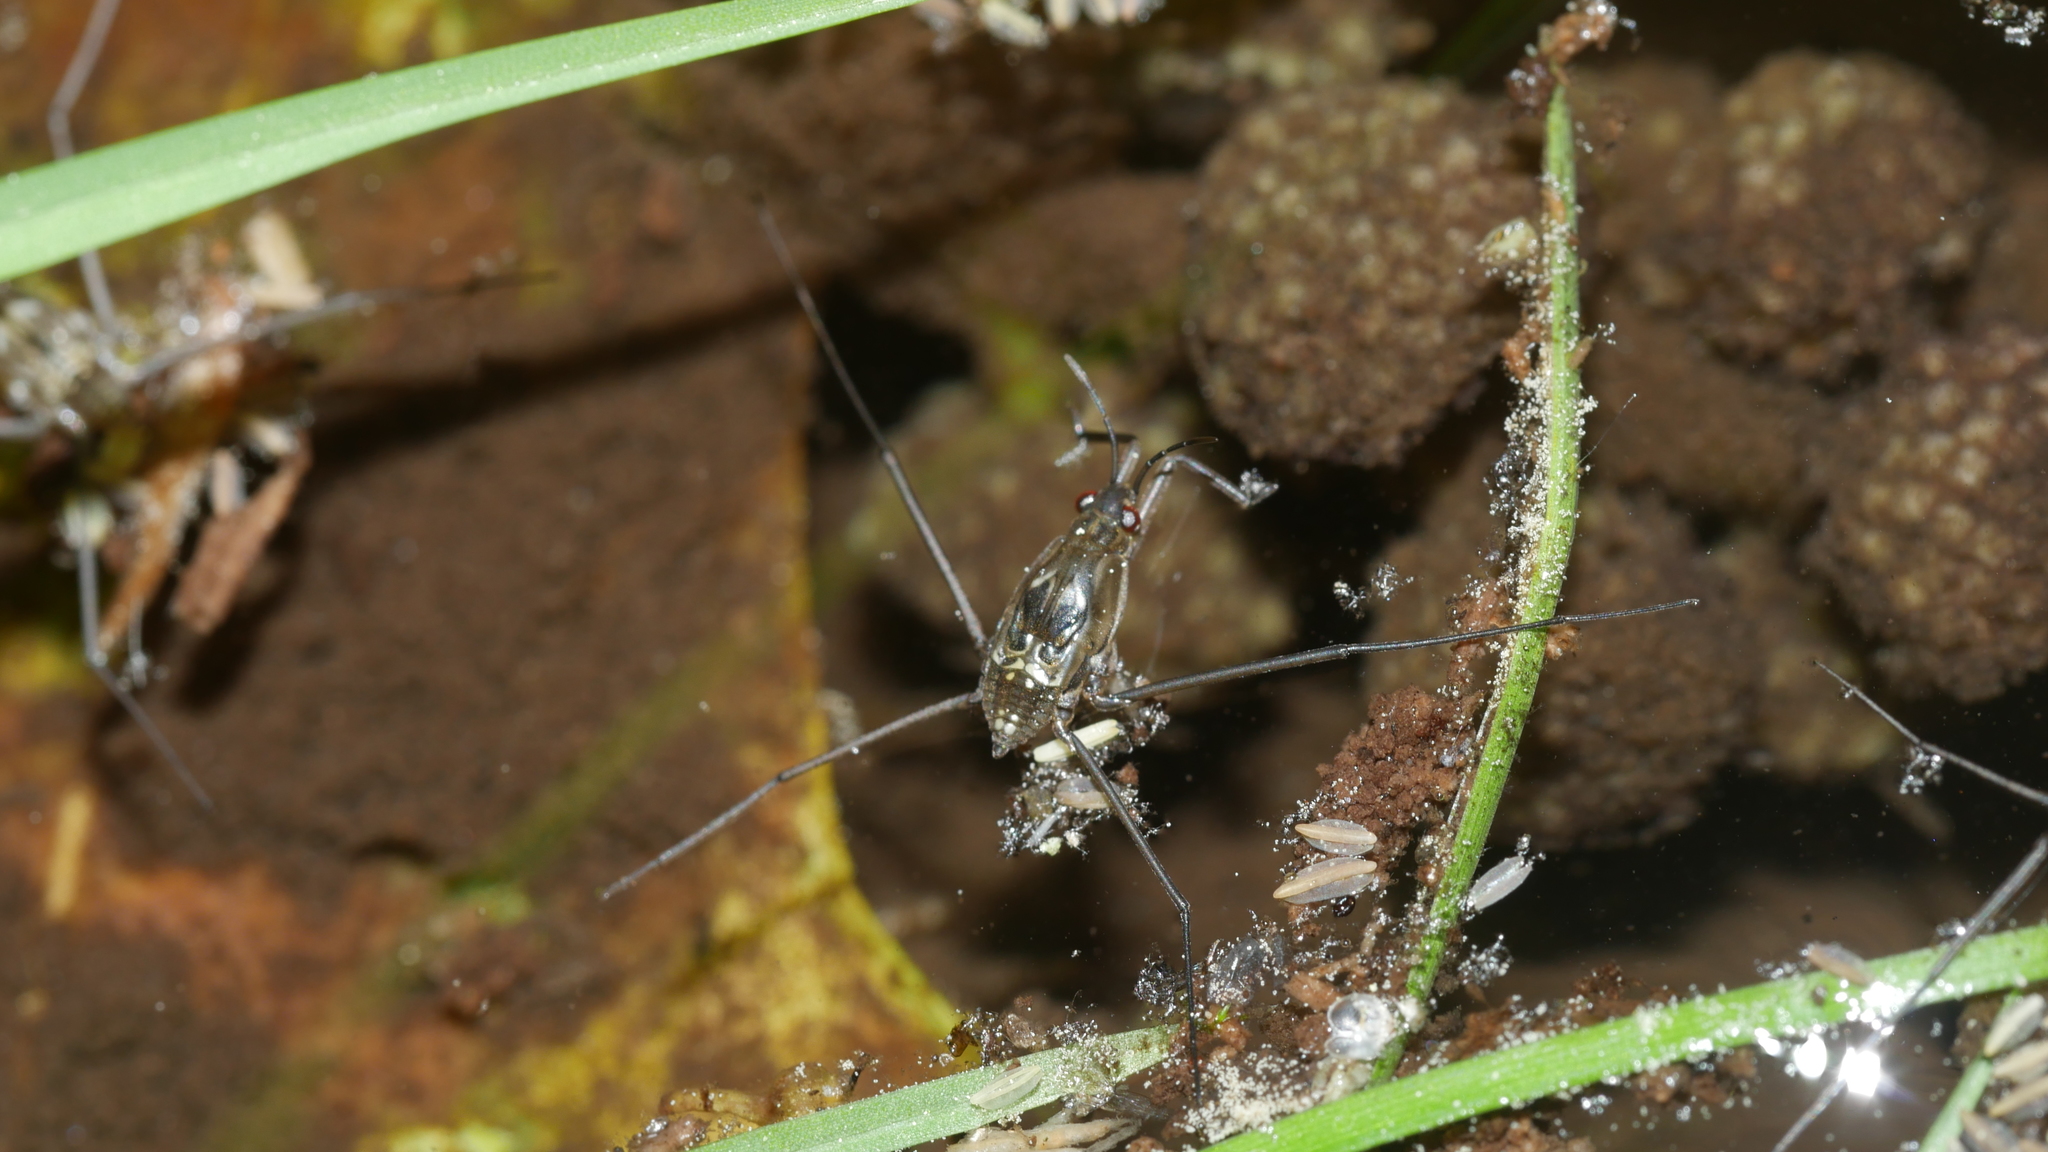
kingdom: Animalia
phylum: Arthropoda
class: Insecta
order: Hemiptera
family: Gerridae
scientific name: Gerridae
